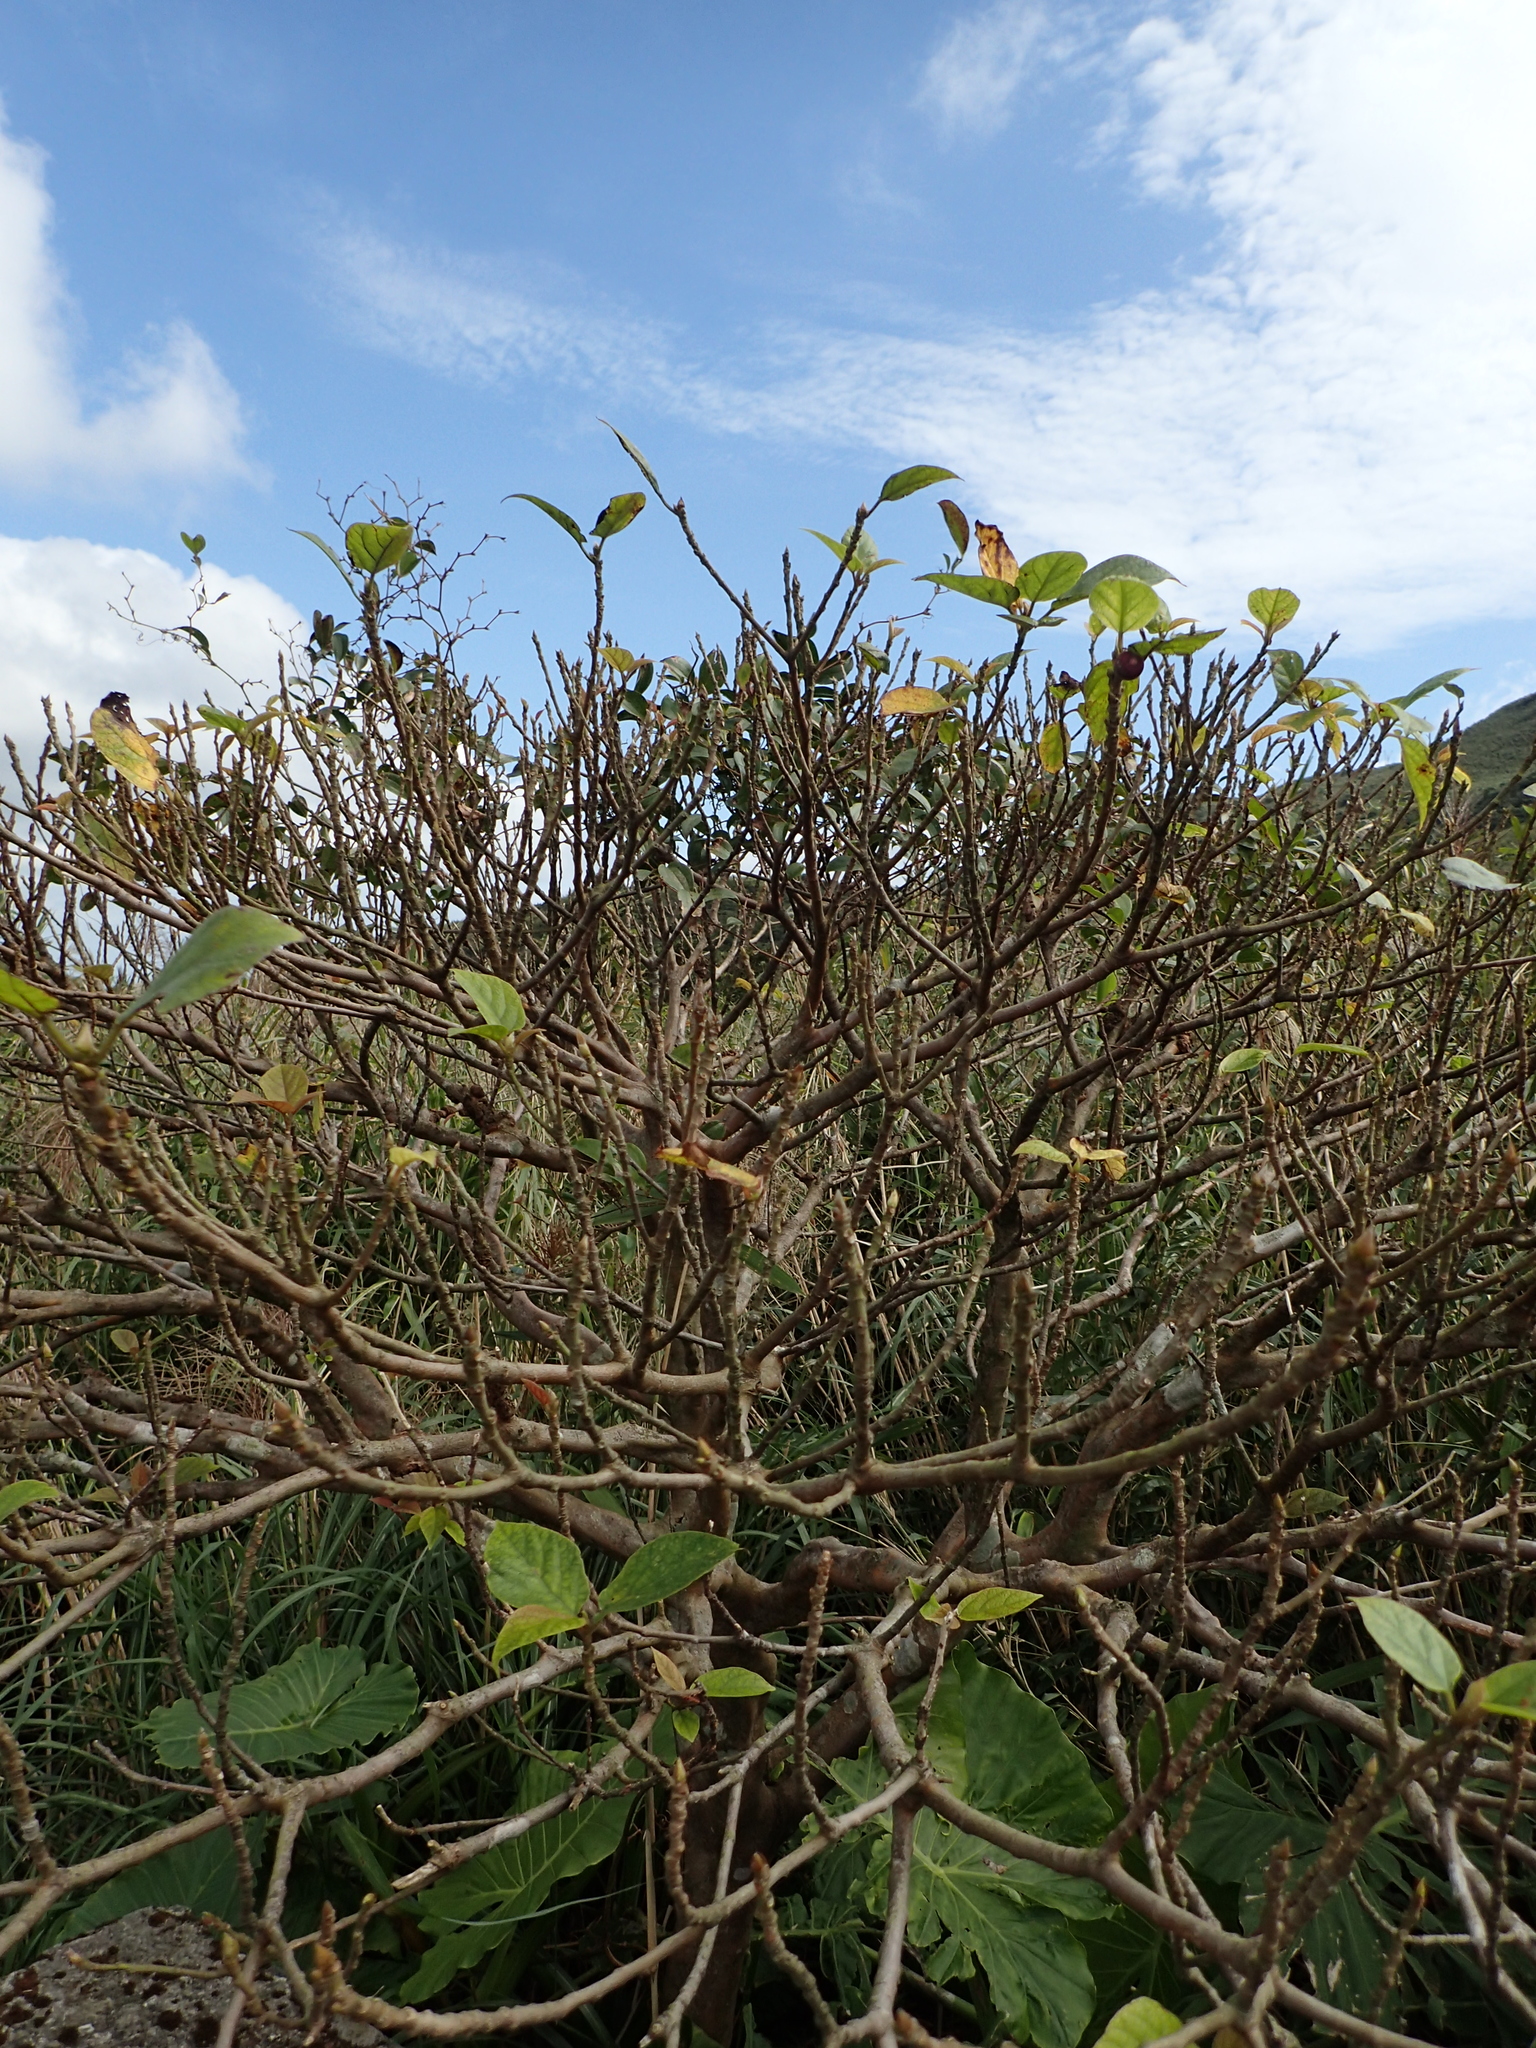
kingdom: Plantae
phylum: Tracheophyta
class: Magnoliopsida
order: Rosales
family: Moraceae
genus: Ficus
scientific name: Ficus erecta
